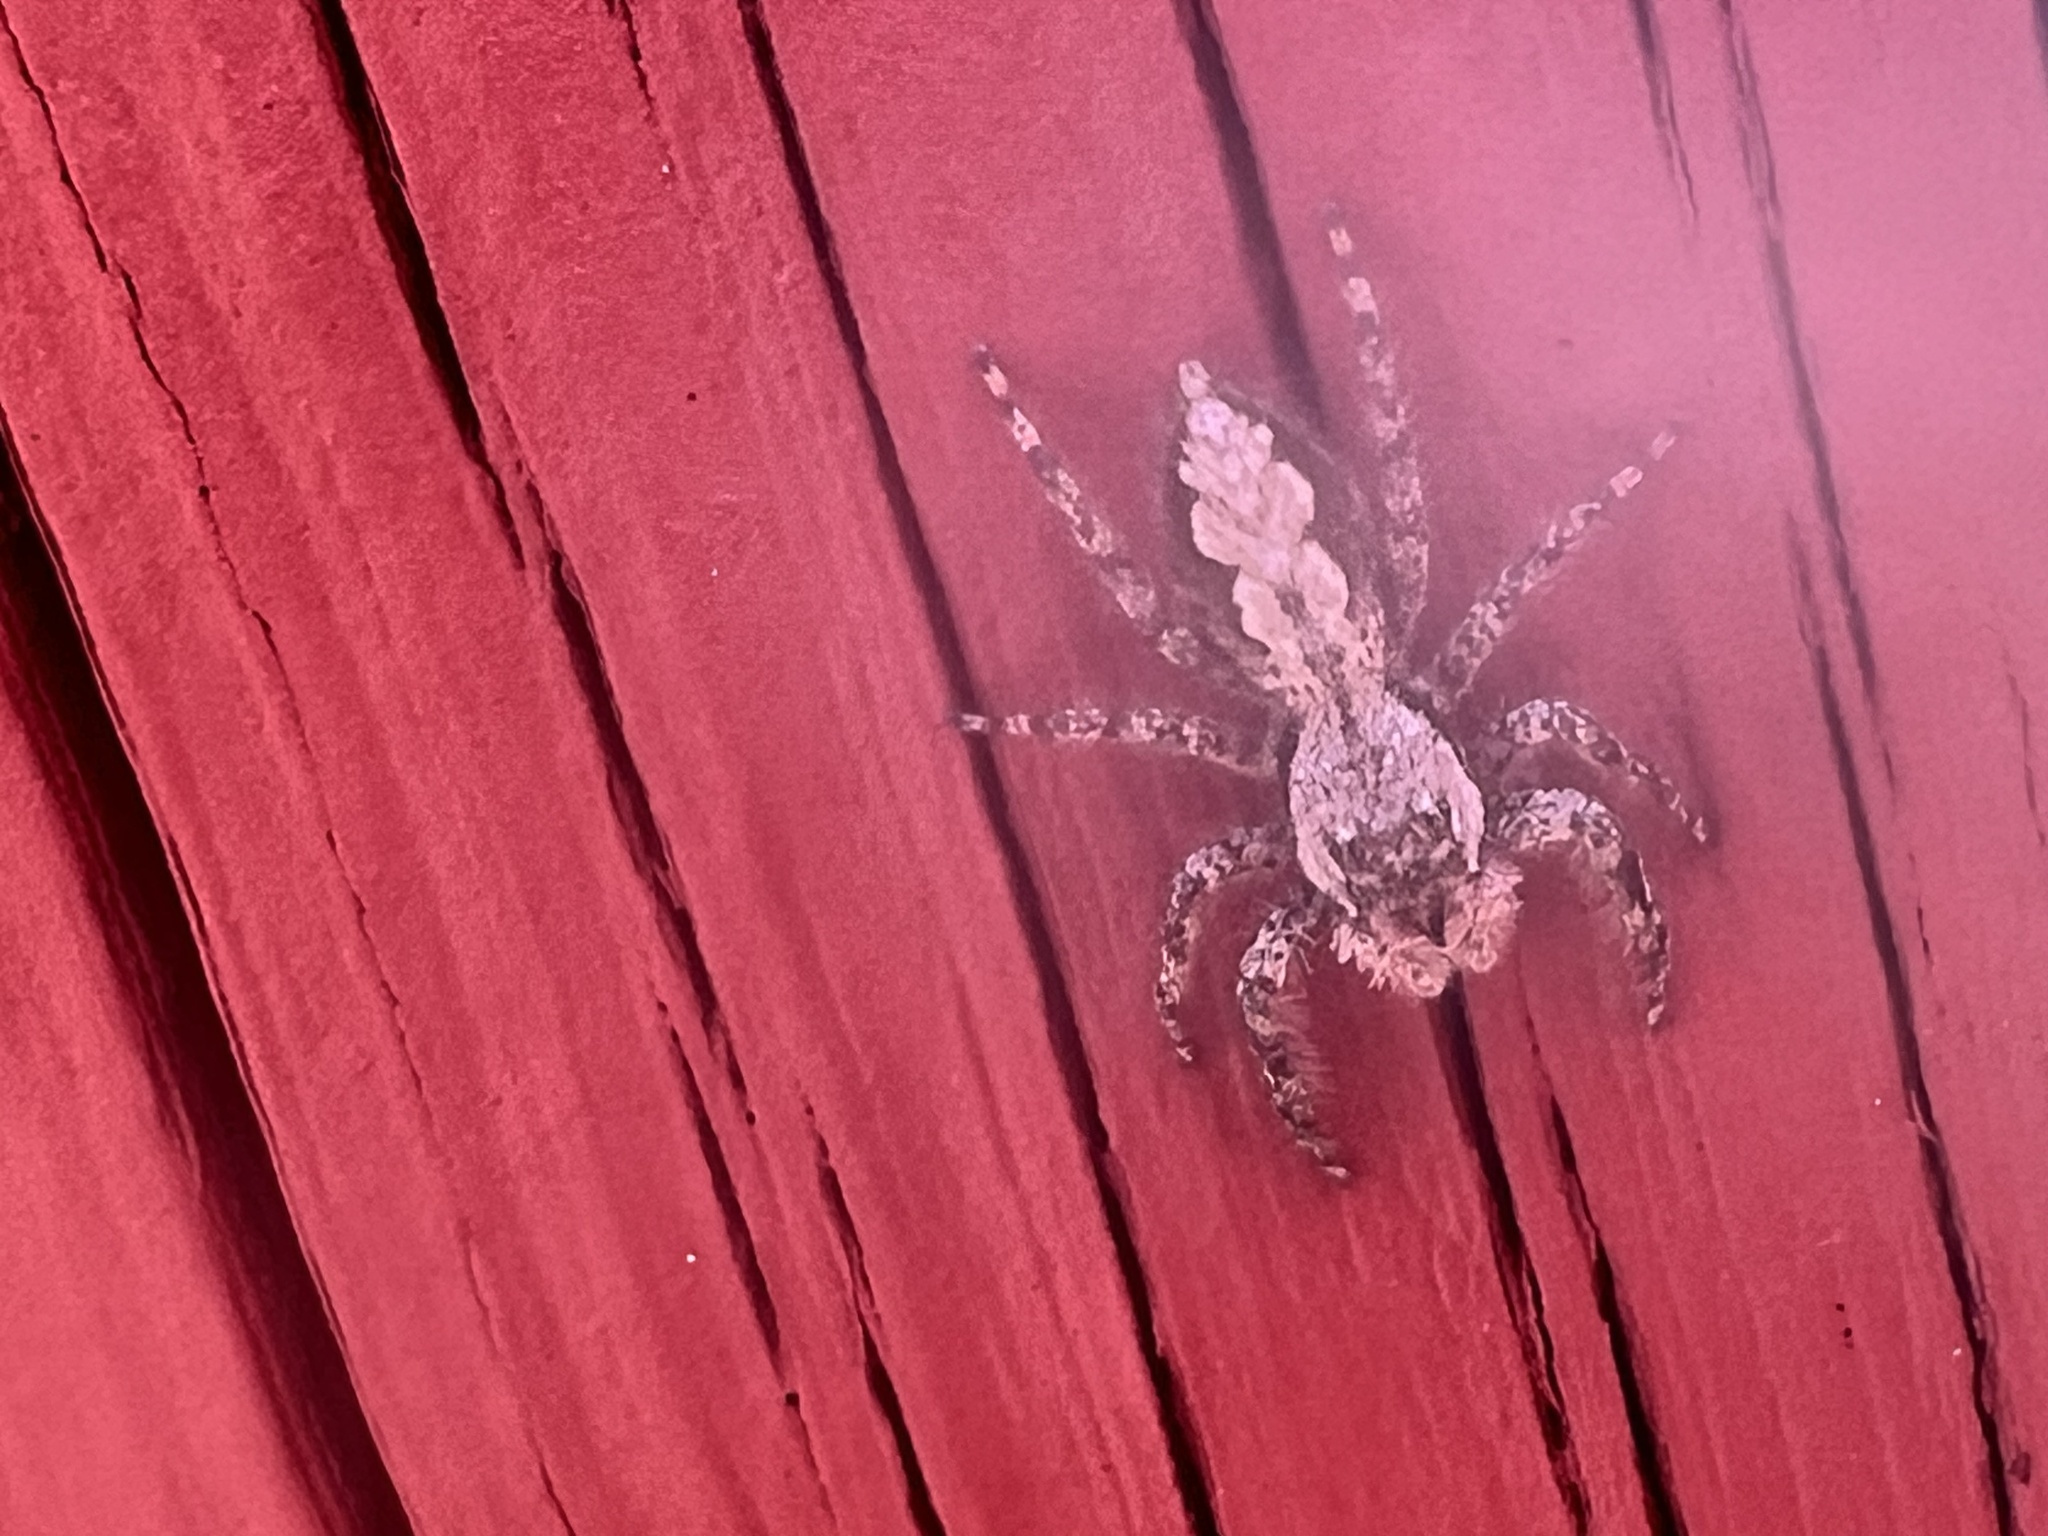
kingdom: Animalia
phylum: Arthropoda
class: Arachnida
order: Araneae
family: Salticidae
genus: Platycryptus
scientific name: Platycryptus undatus
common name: Tan jumping spider
